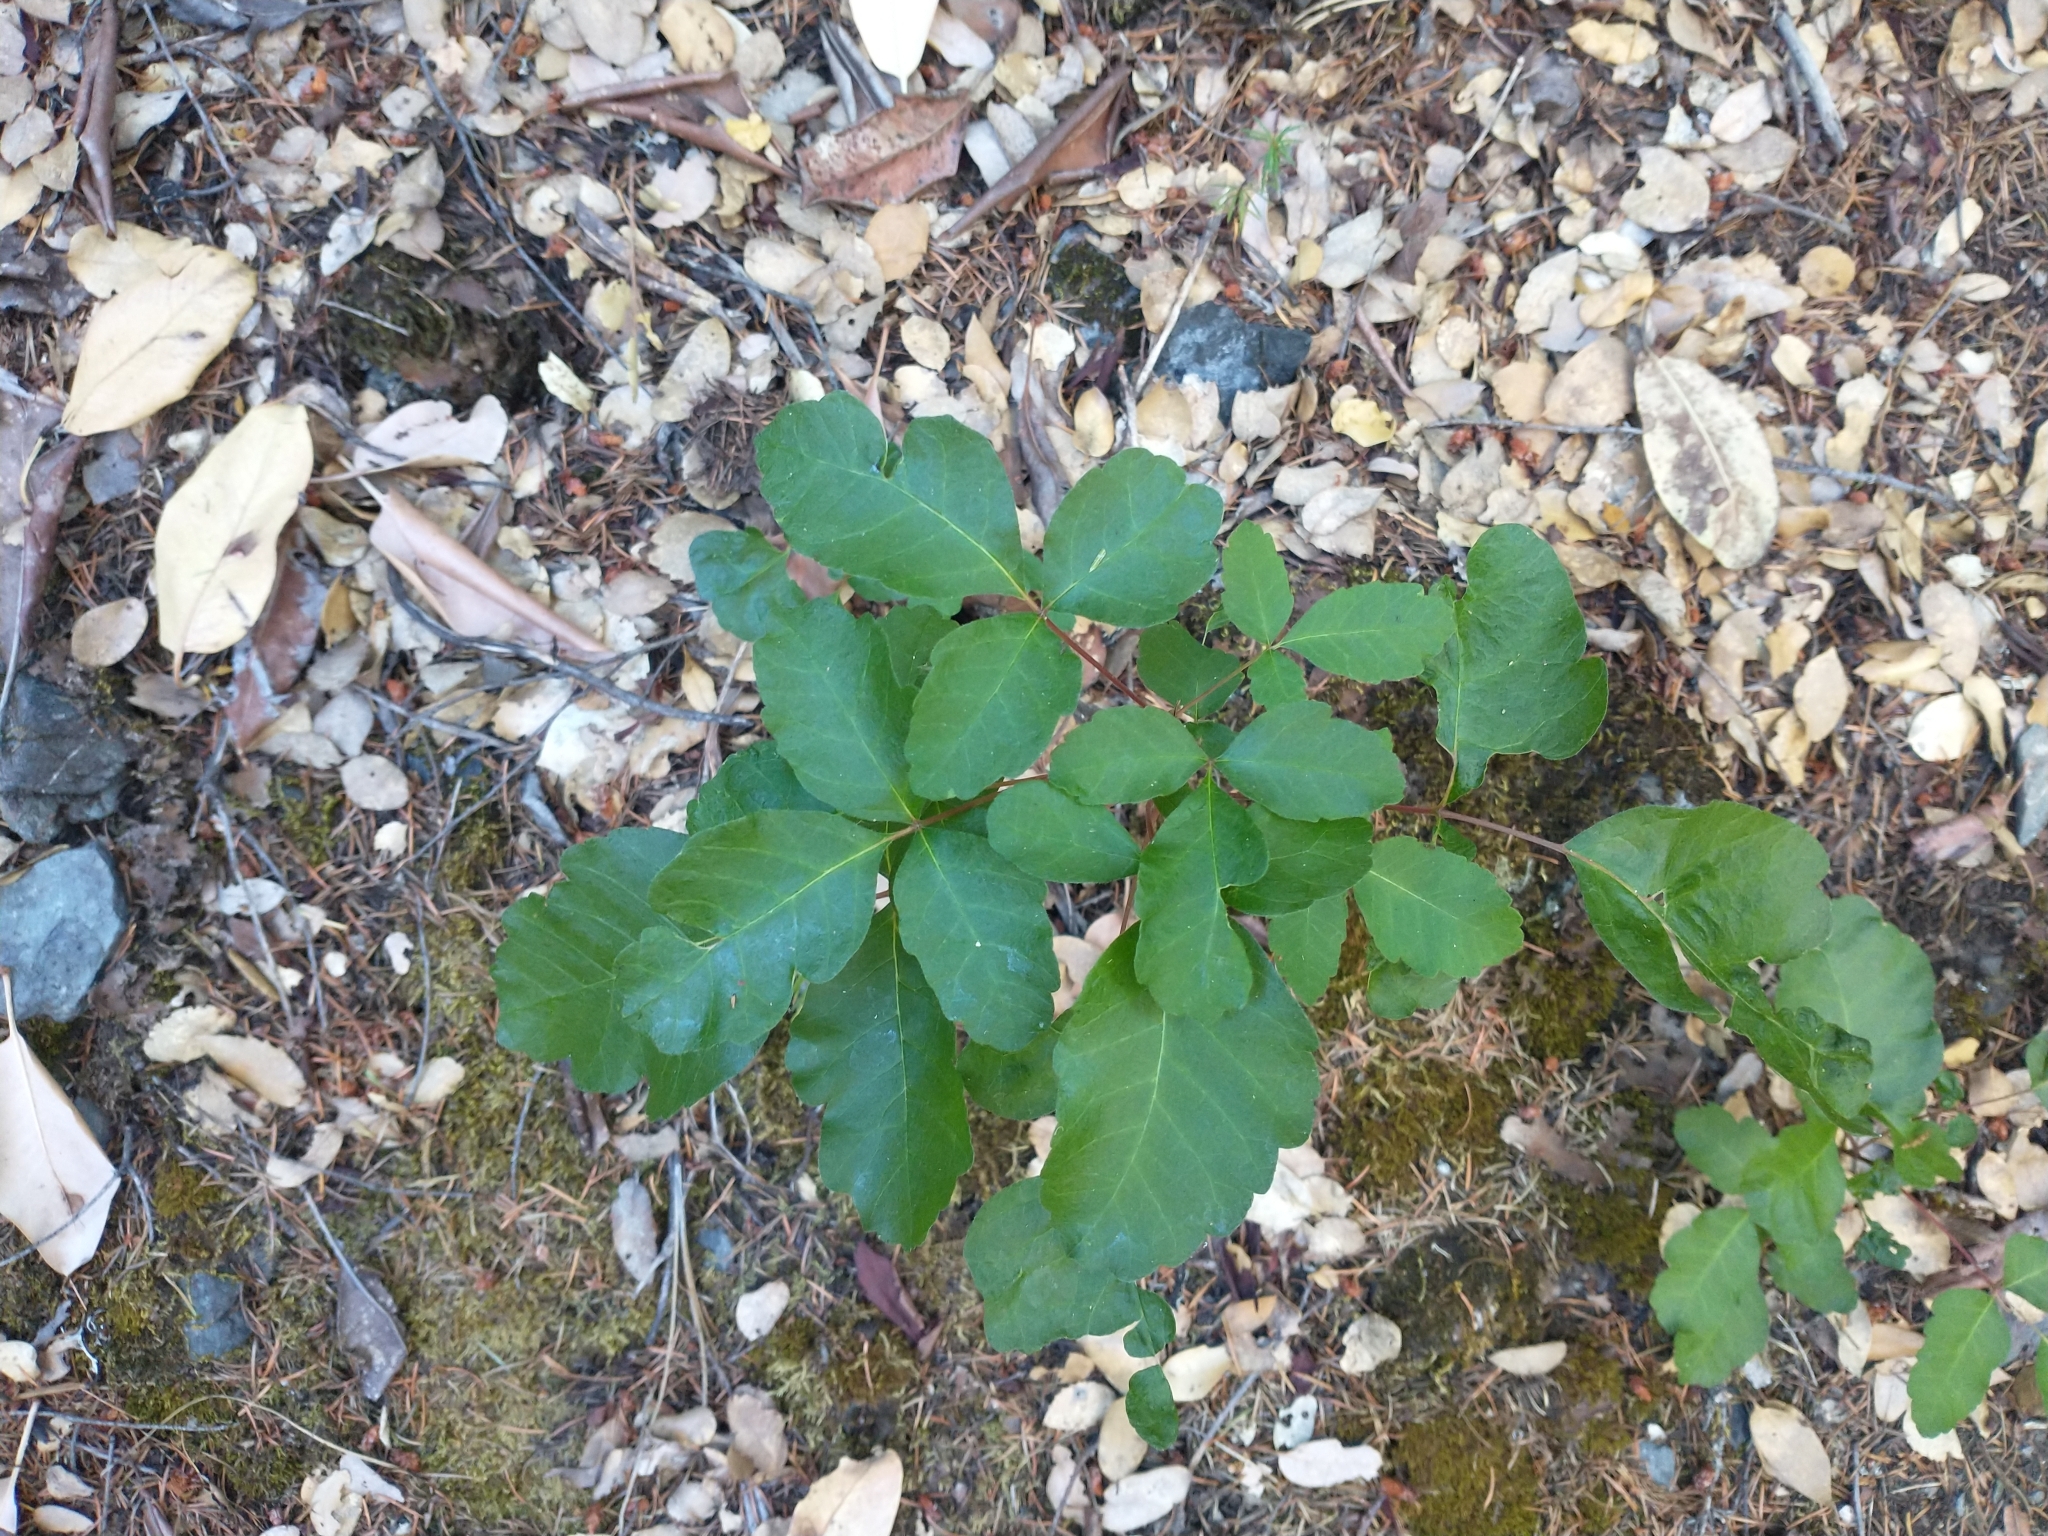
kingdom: Plantae
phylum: Tracheophyta
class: Magnoliopsida
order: Sapindales
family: Anacardiaceae
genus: Toxicodendron
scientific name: Toxicodendron diversilobum
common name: Pacific poison-oak
